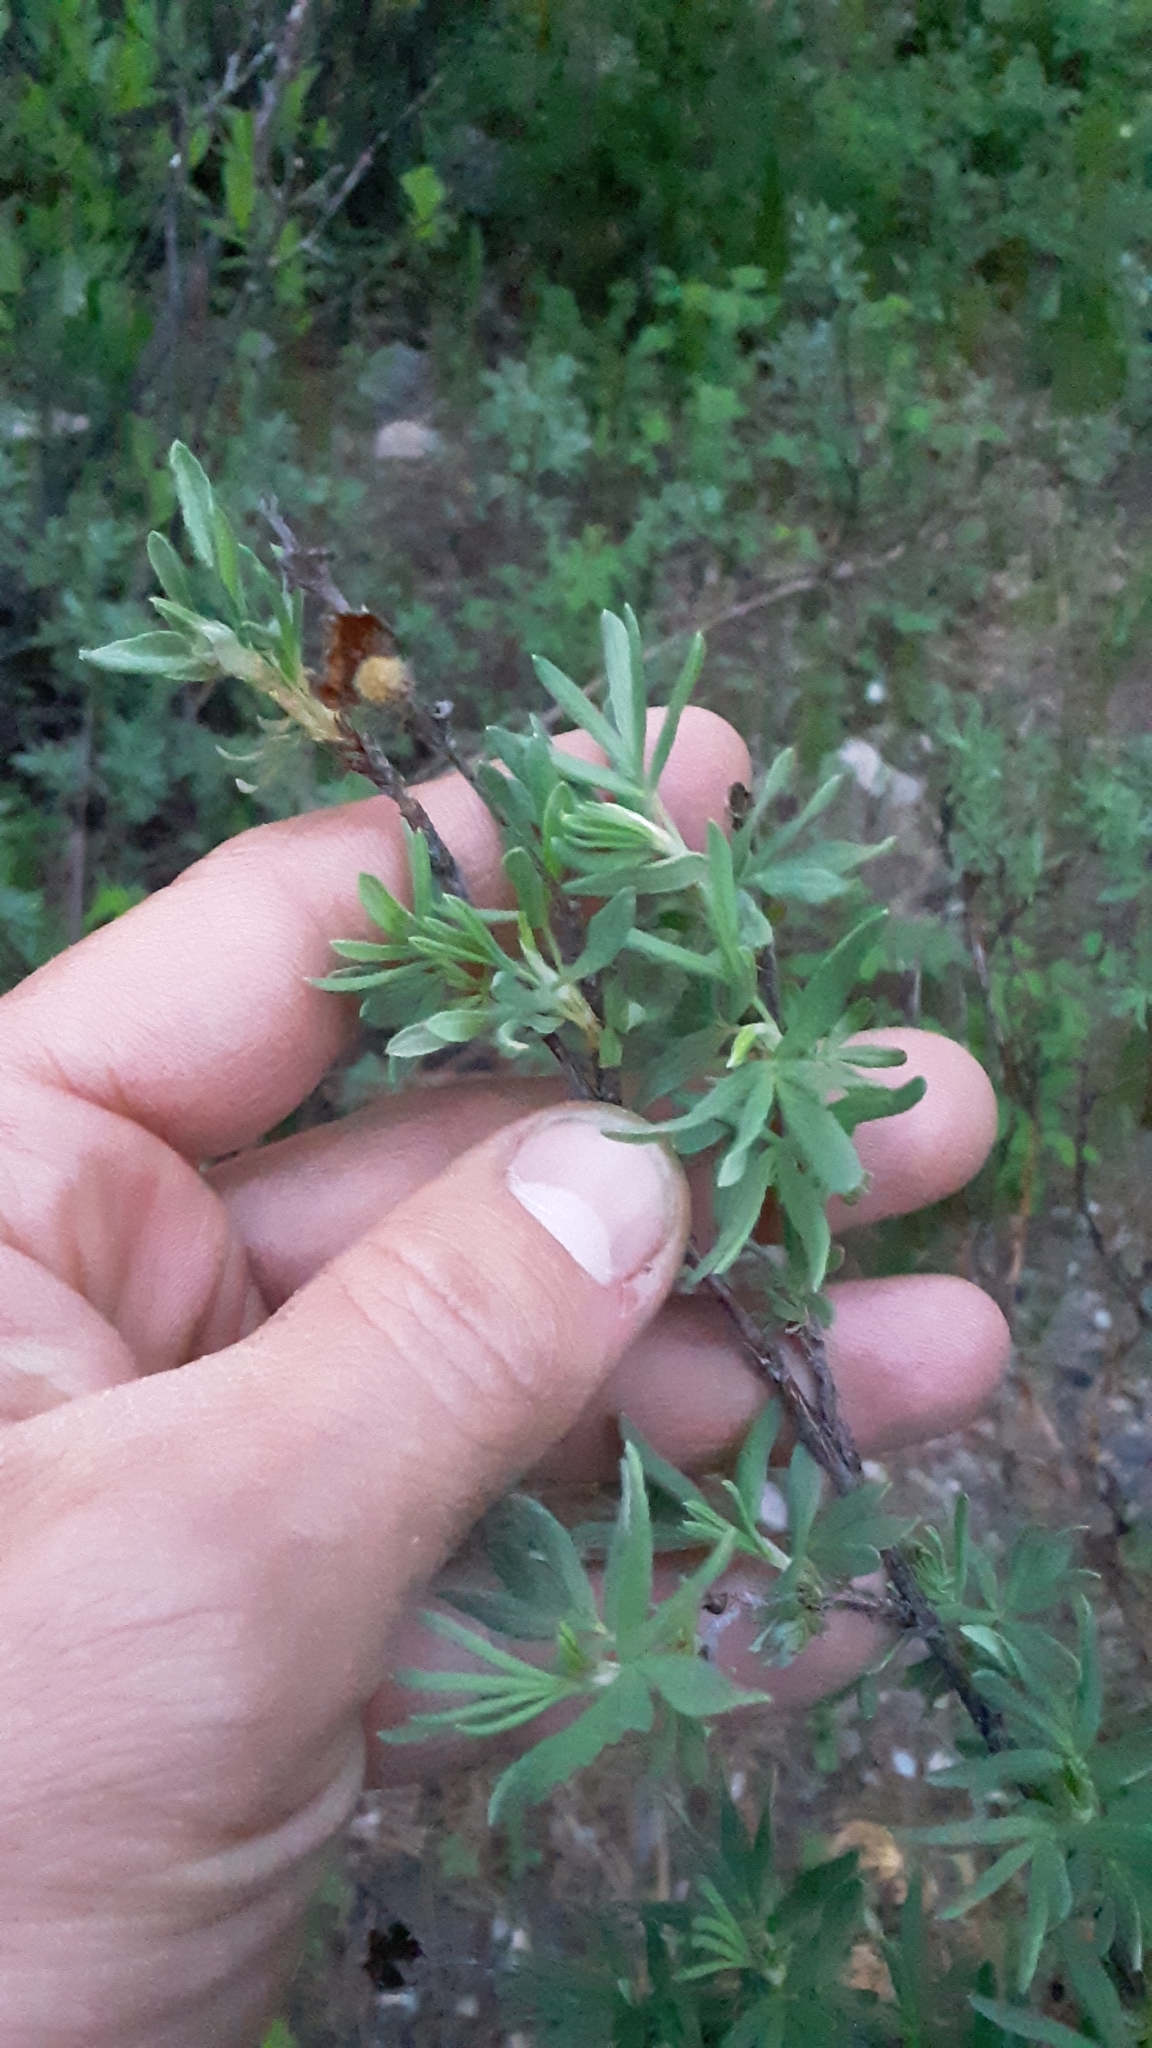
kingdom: Plantae
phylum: Tracheophyta
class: Magnoliopsida
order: Rosales
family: Rosaceae
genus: Dasiphora
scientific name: Dasiphora fruticosa
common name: Shrubby cinquefoil
